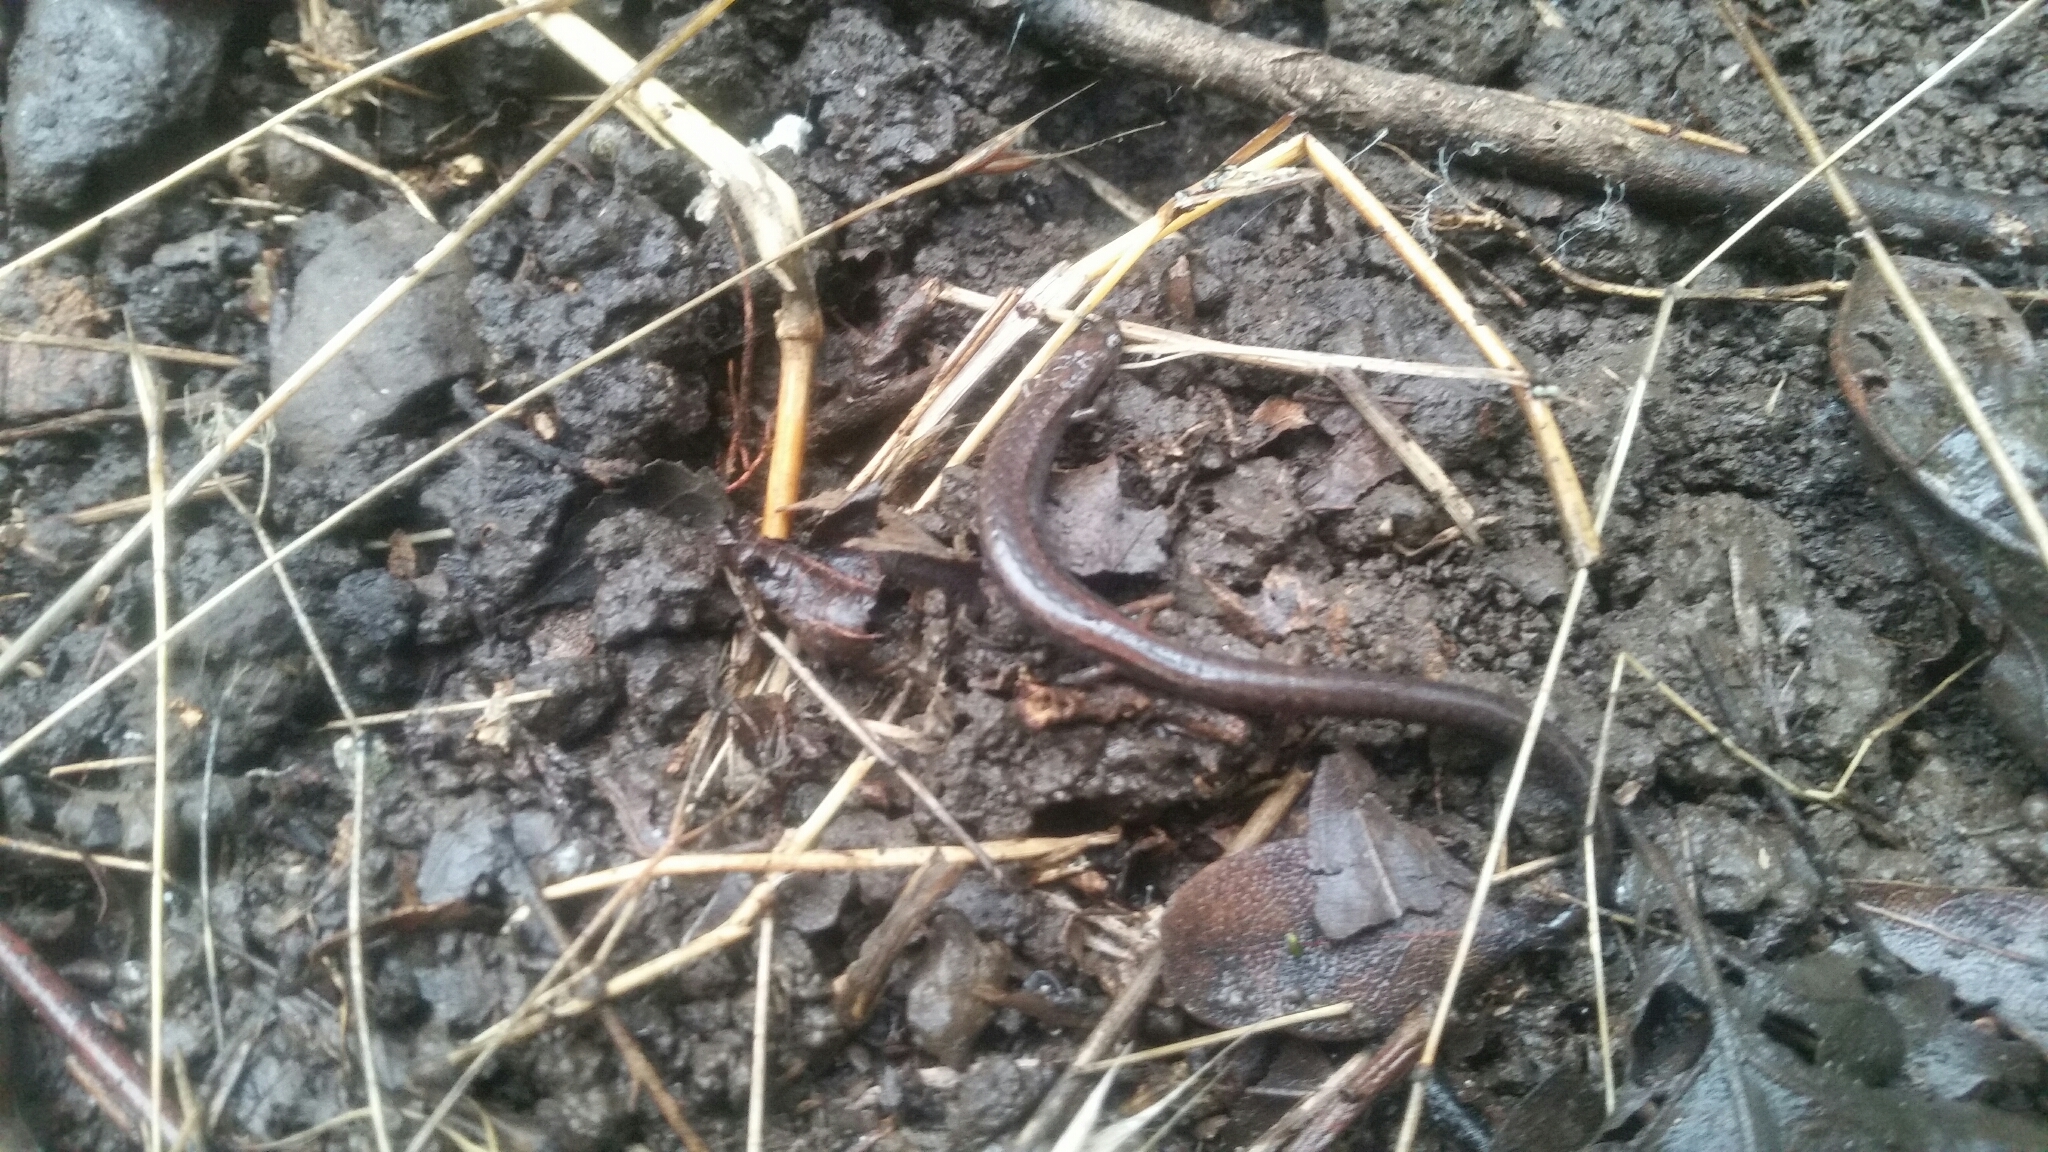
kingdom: Animalia
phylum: Chordata
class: Amphibia
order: Caudata
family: Plethodontidae
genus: Batrachoseps
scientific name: Batrachoseps attenuatus
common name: California slender salamander
